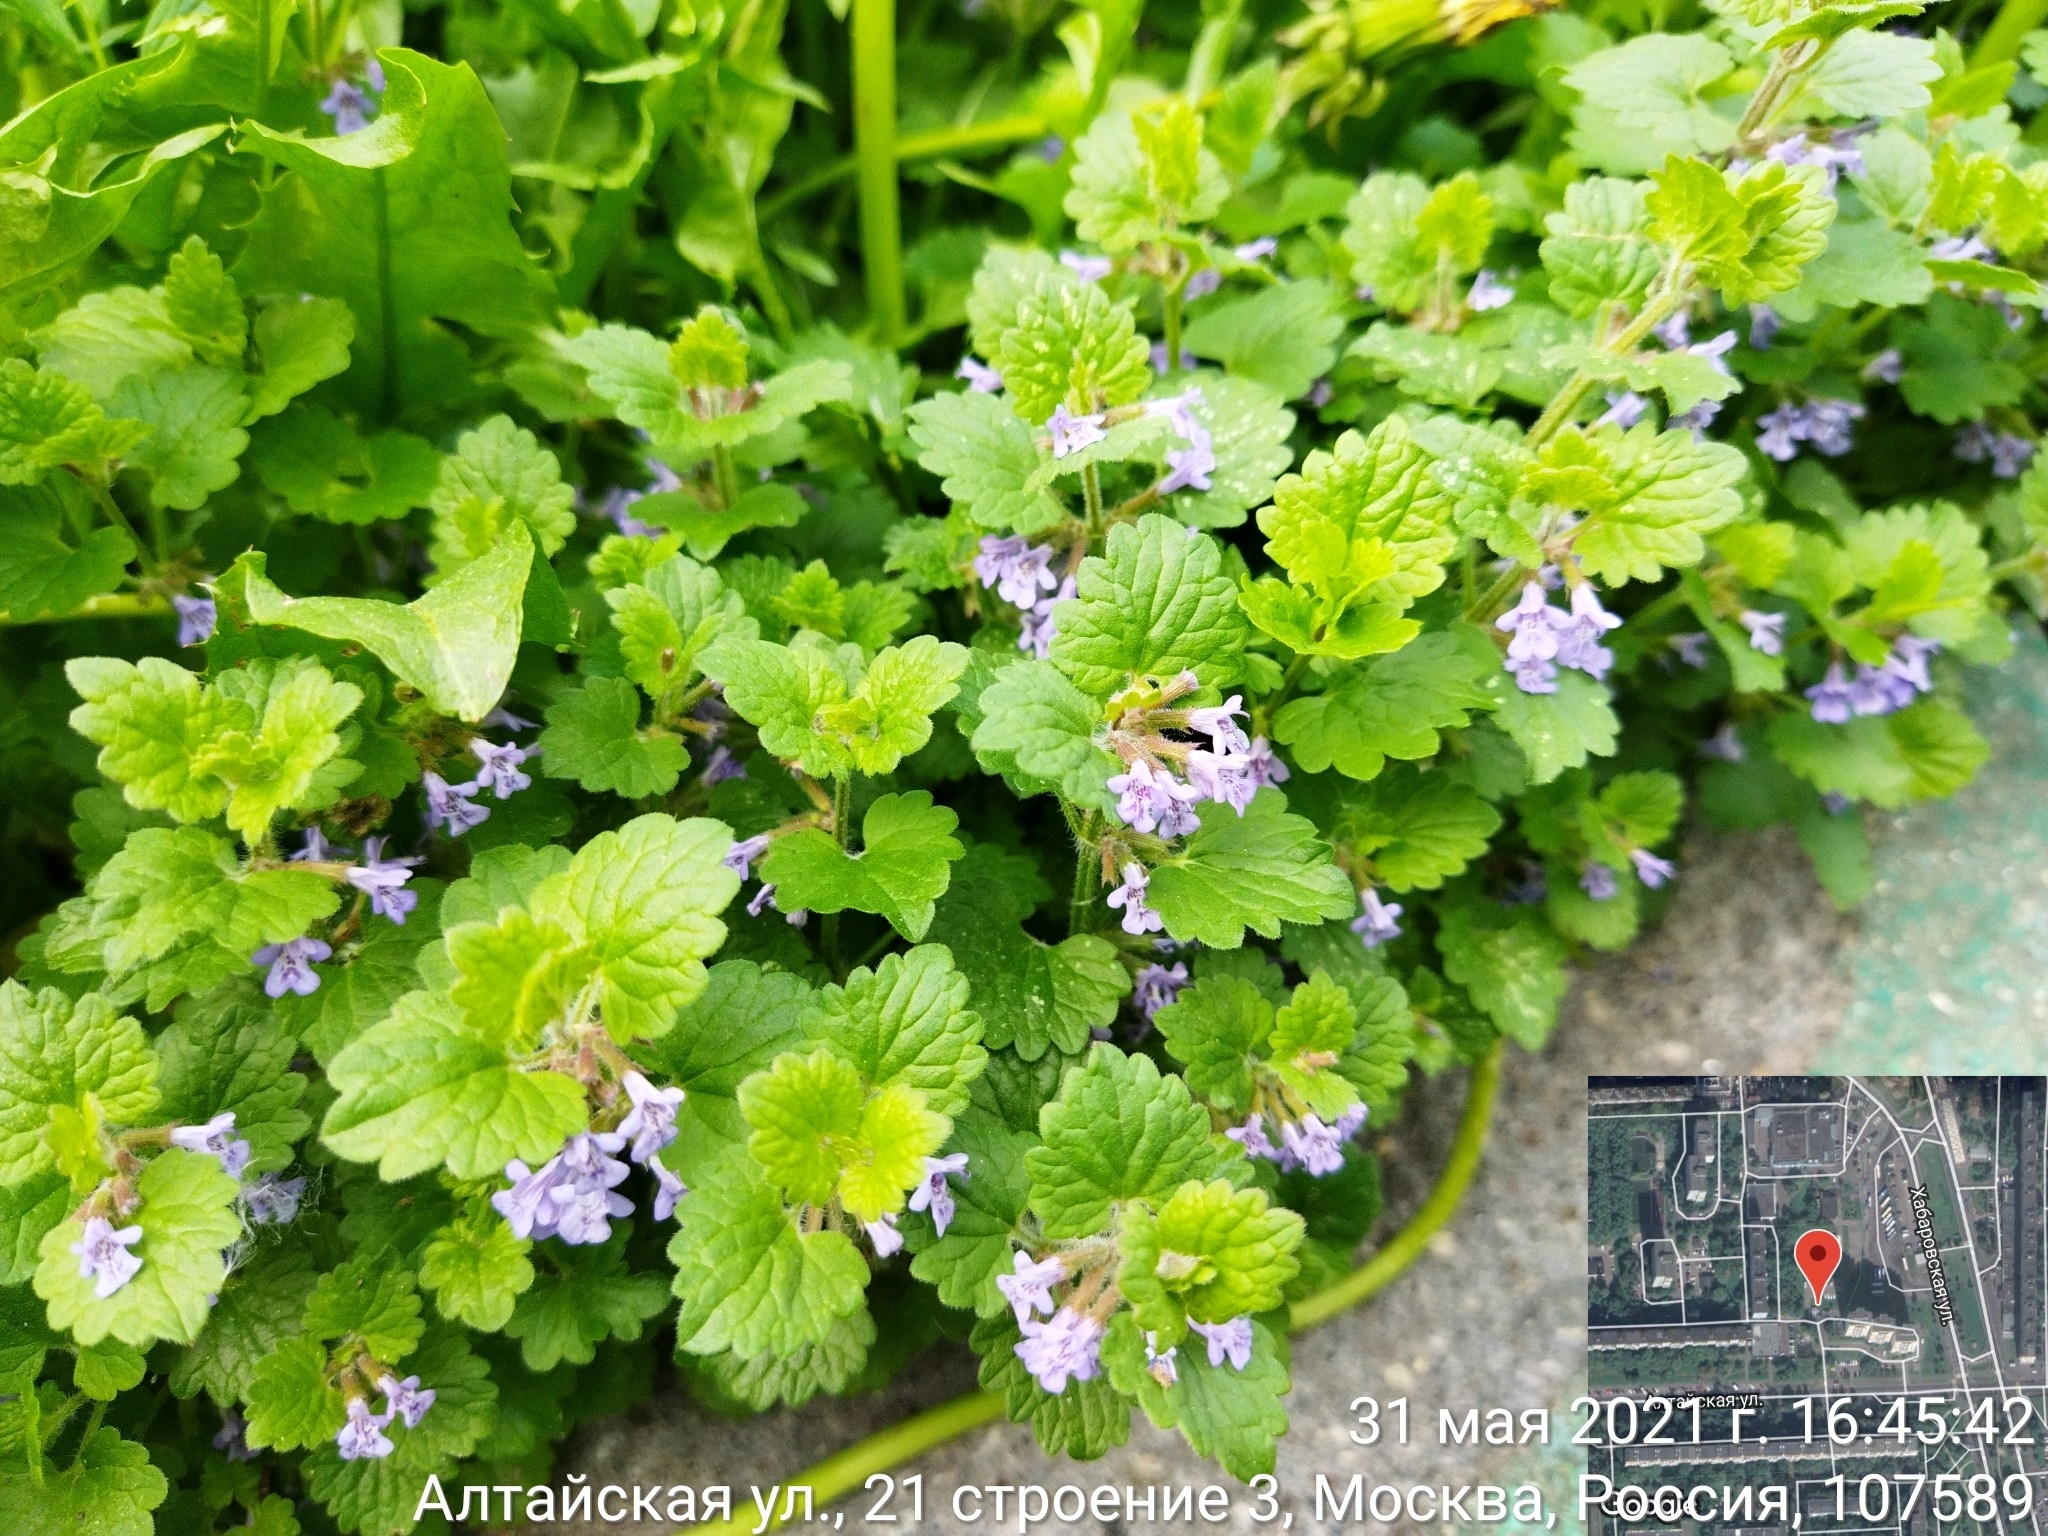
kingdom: Plantae
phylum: Tracheophyta
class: Magnoliopsida
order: Lamiales
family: Lamiaceae
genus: Glechoma
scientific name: Glechoma hederacea
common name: Ground ivy
